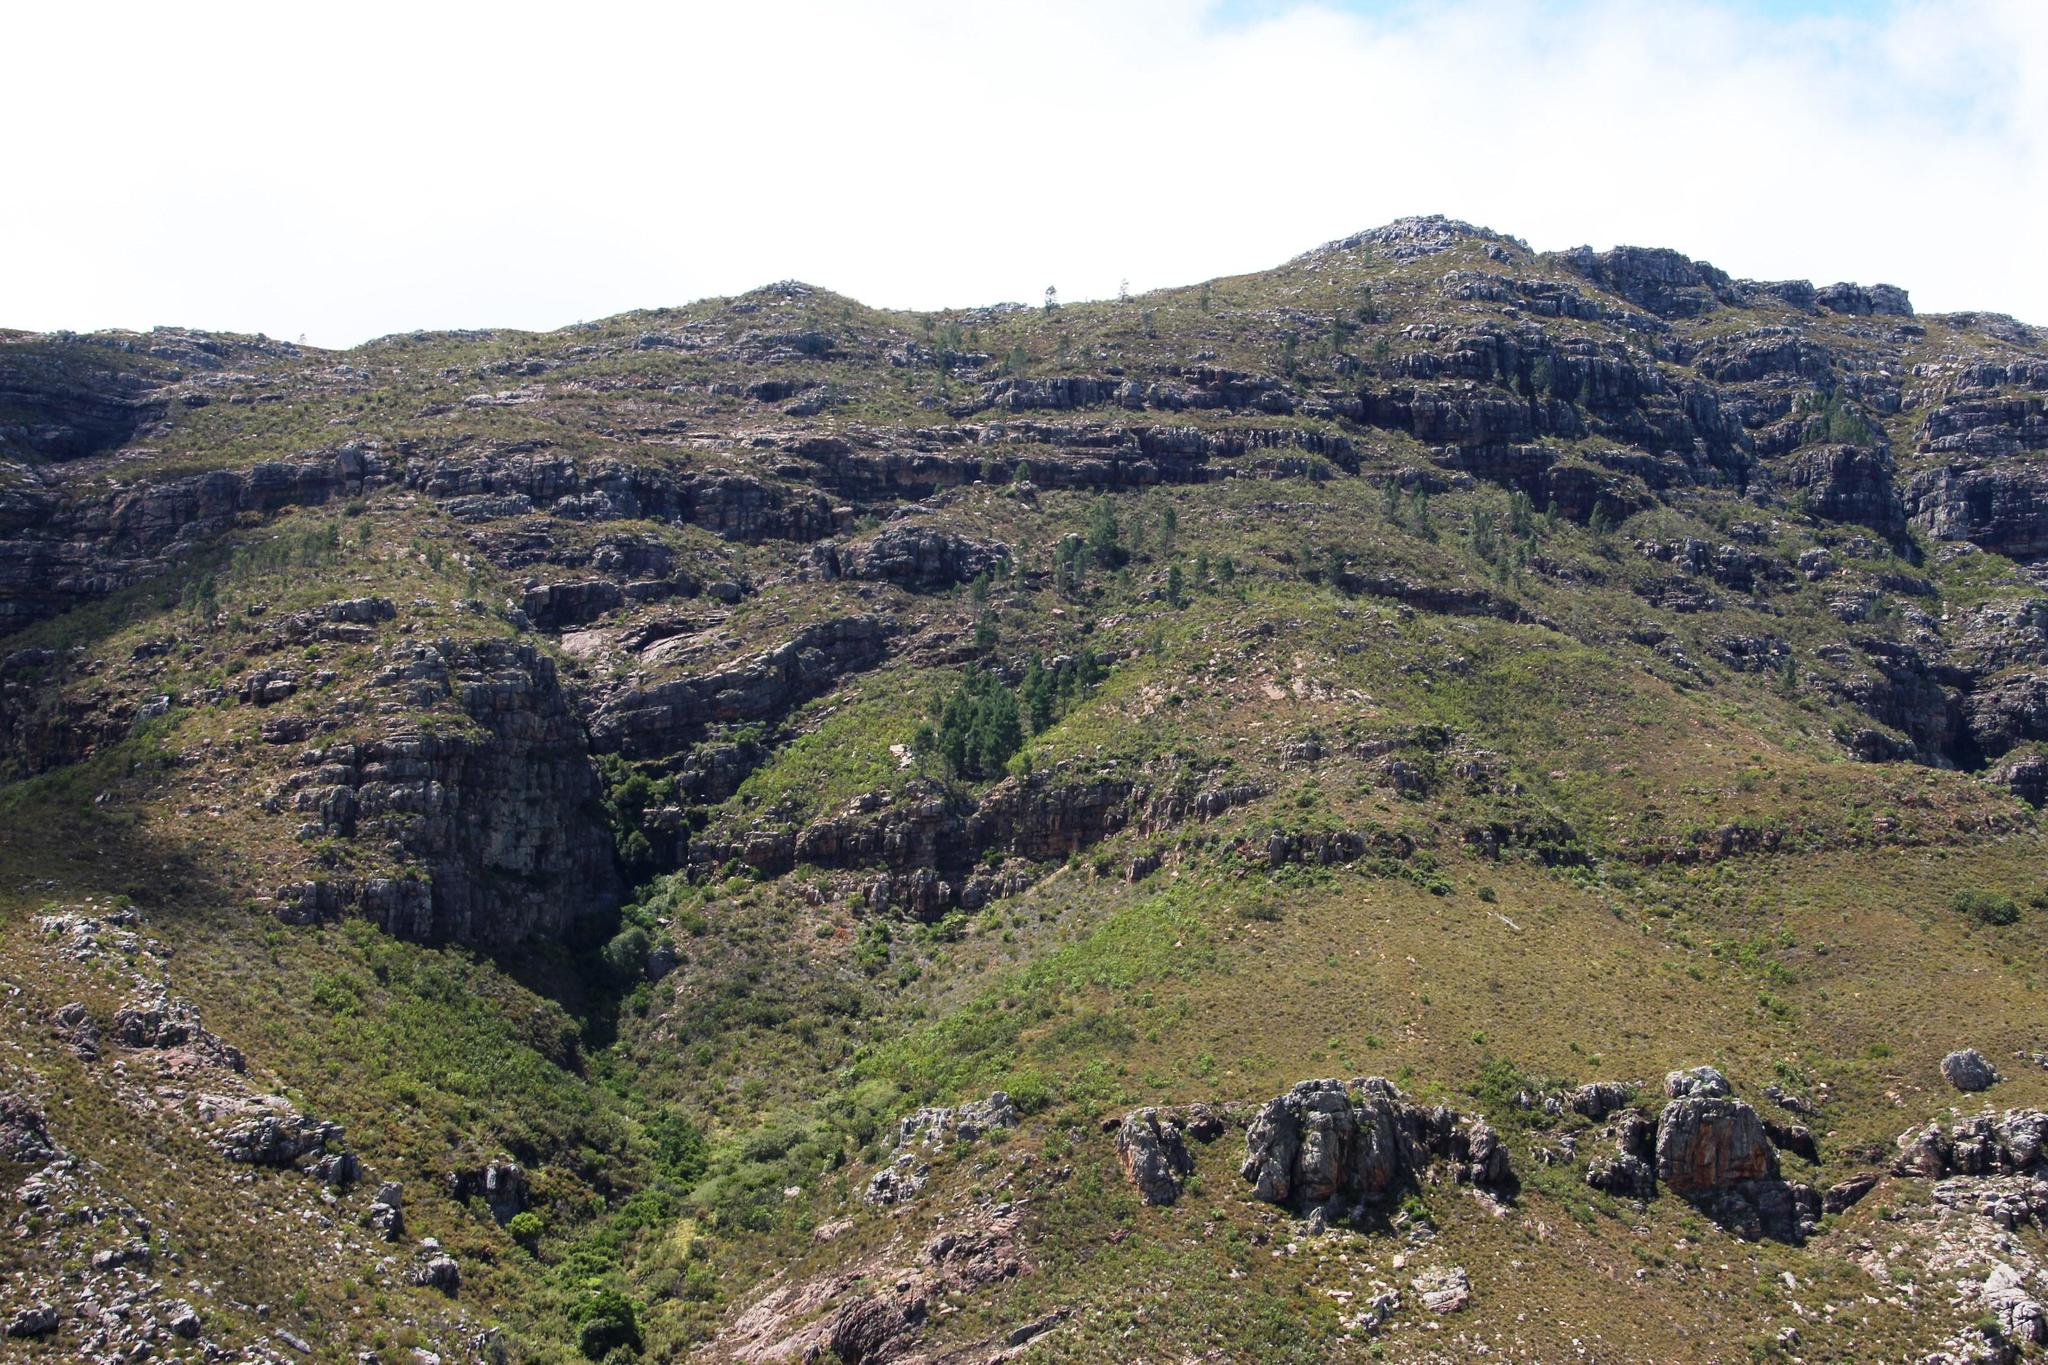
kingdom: Plantae
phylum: Tracheophyta
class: Pinopsida
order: Pinales
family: Pinaceae
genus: Pinus
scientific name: Pinus pinaster
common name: Maritime pine
